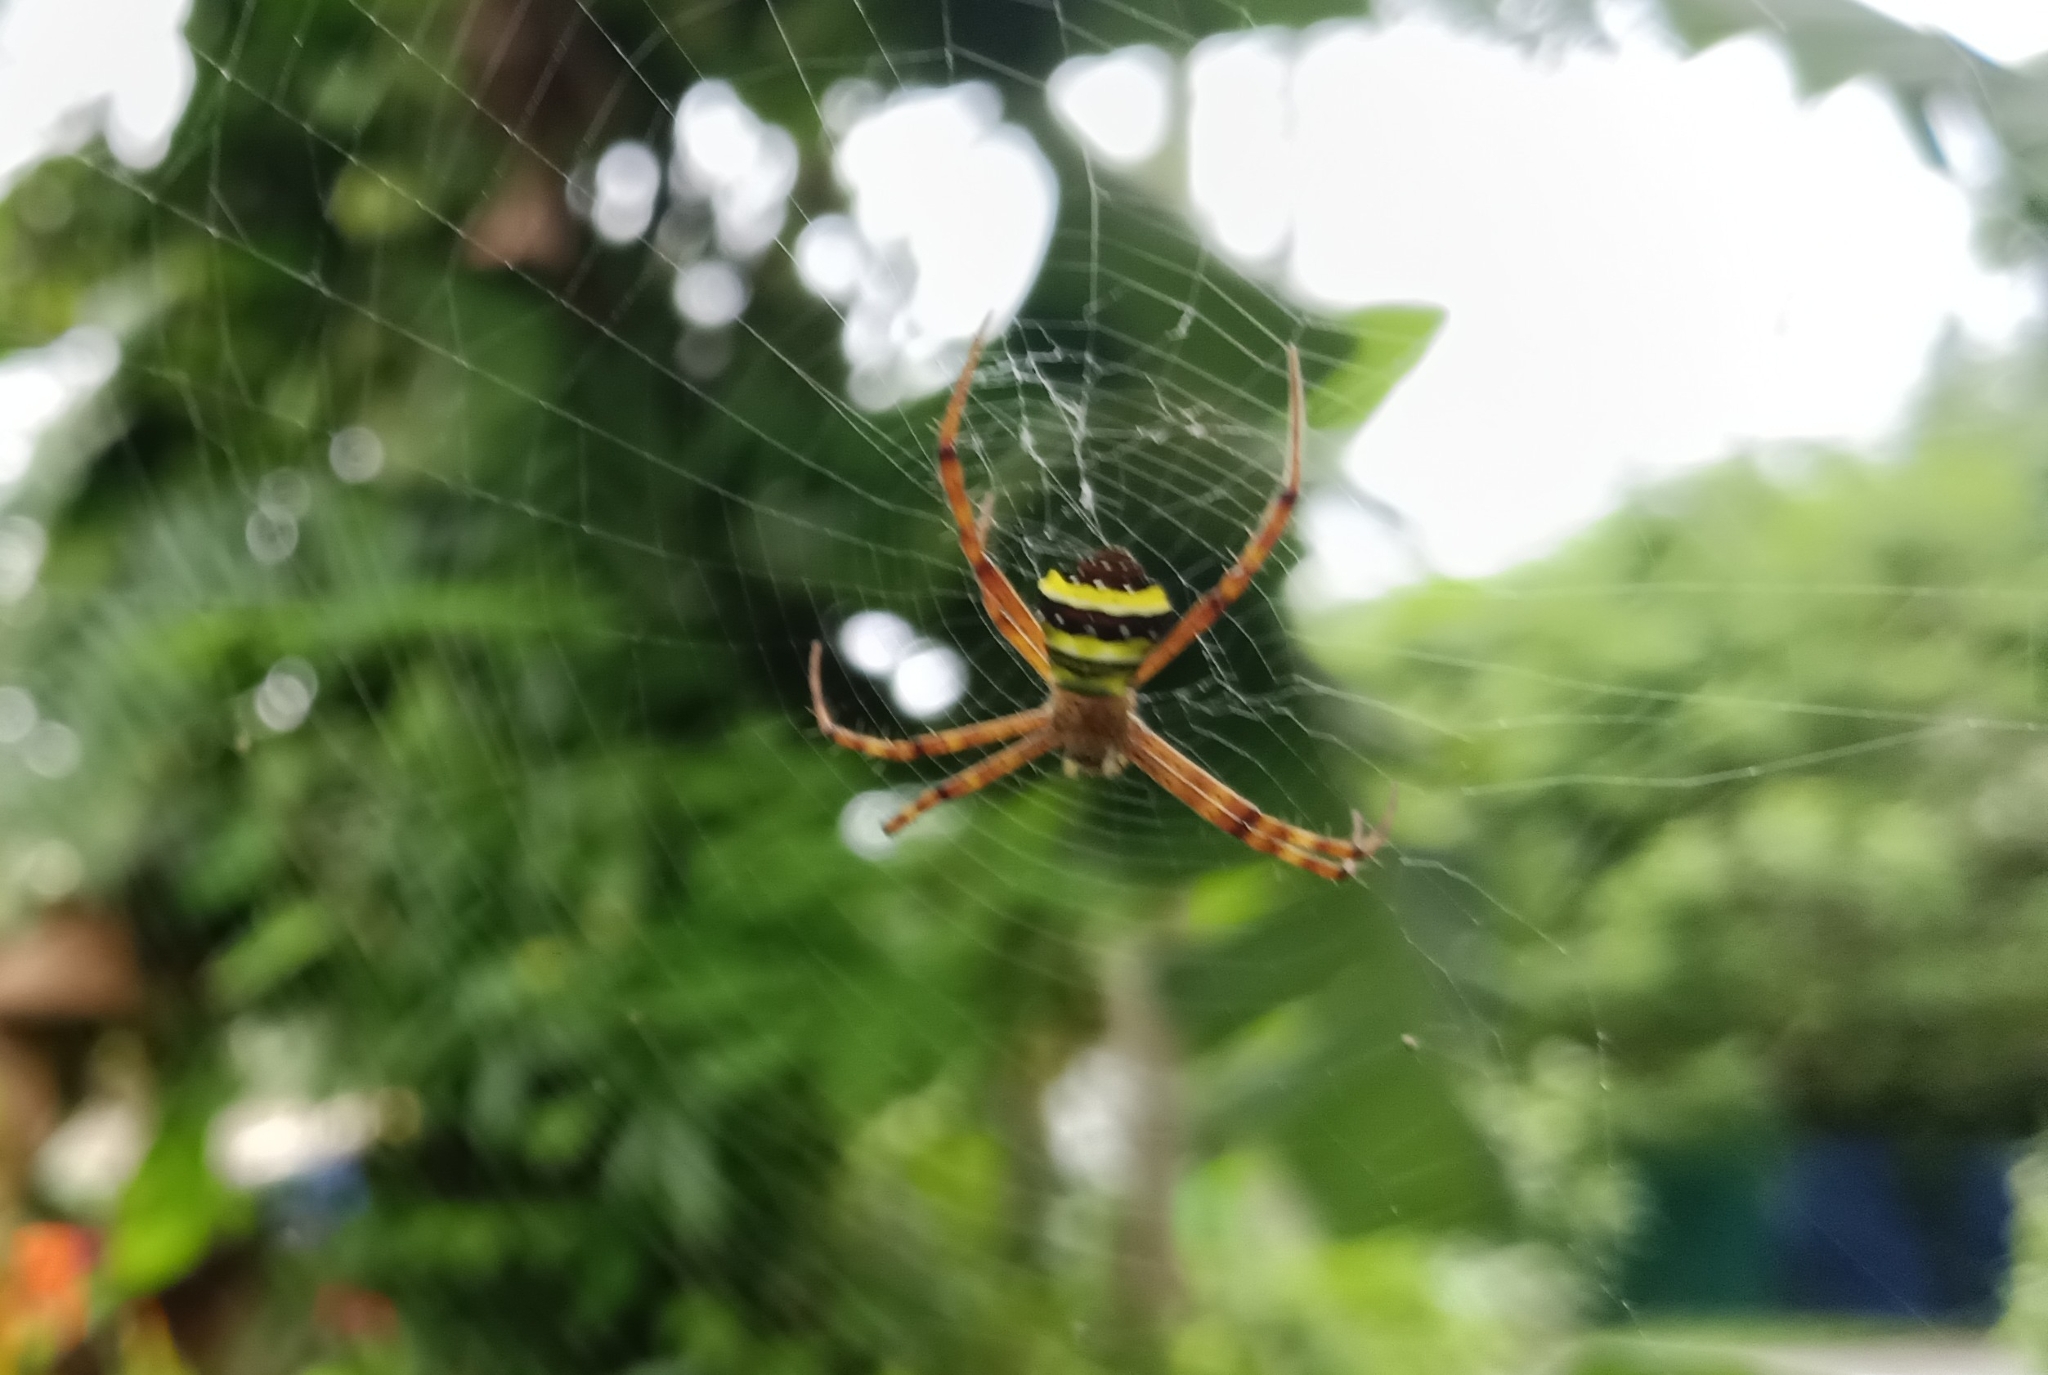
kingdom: Animalia
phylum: Arthropoda
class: Arachnida
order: Araneae
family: Araneidae
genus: Argiope
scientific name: Argiope anasuja
